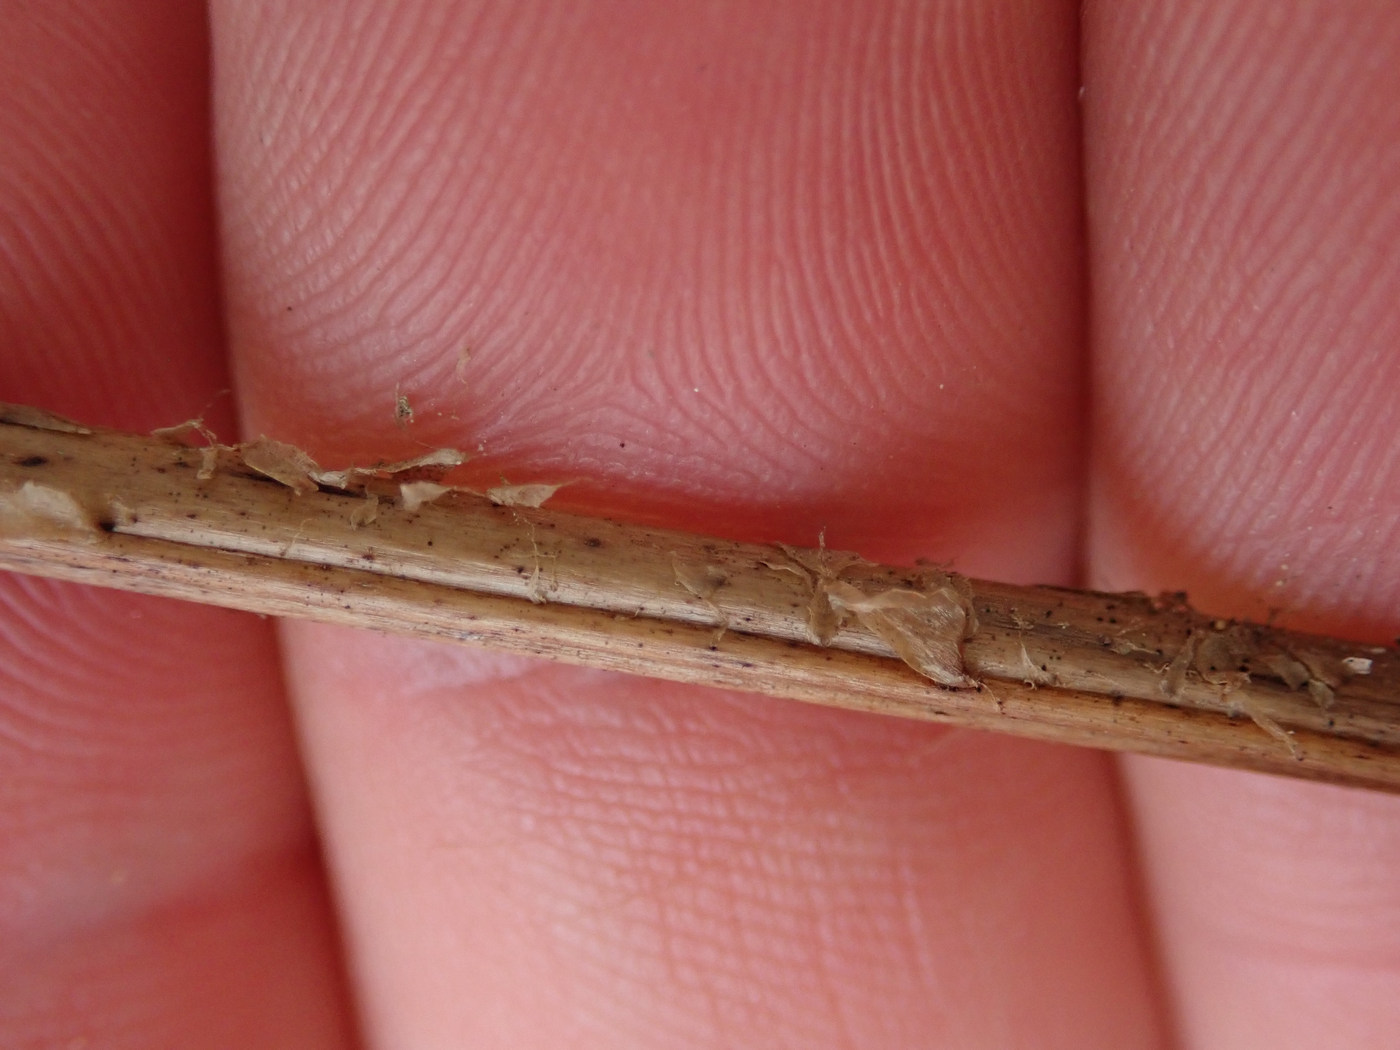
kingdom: Plantae
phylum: Tracheophyta
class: Polypodiopsida
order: Polypodiales
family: Dryopteridaceae
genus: Dryopteris
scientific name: Dryopteris celsa
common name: Log fern
